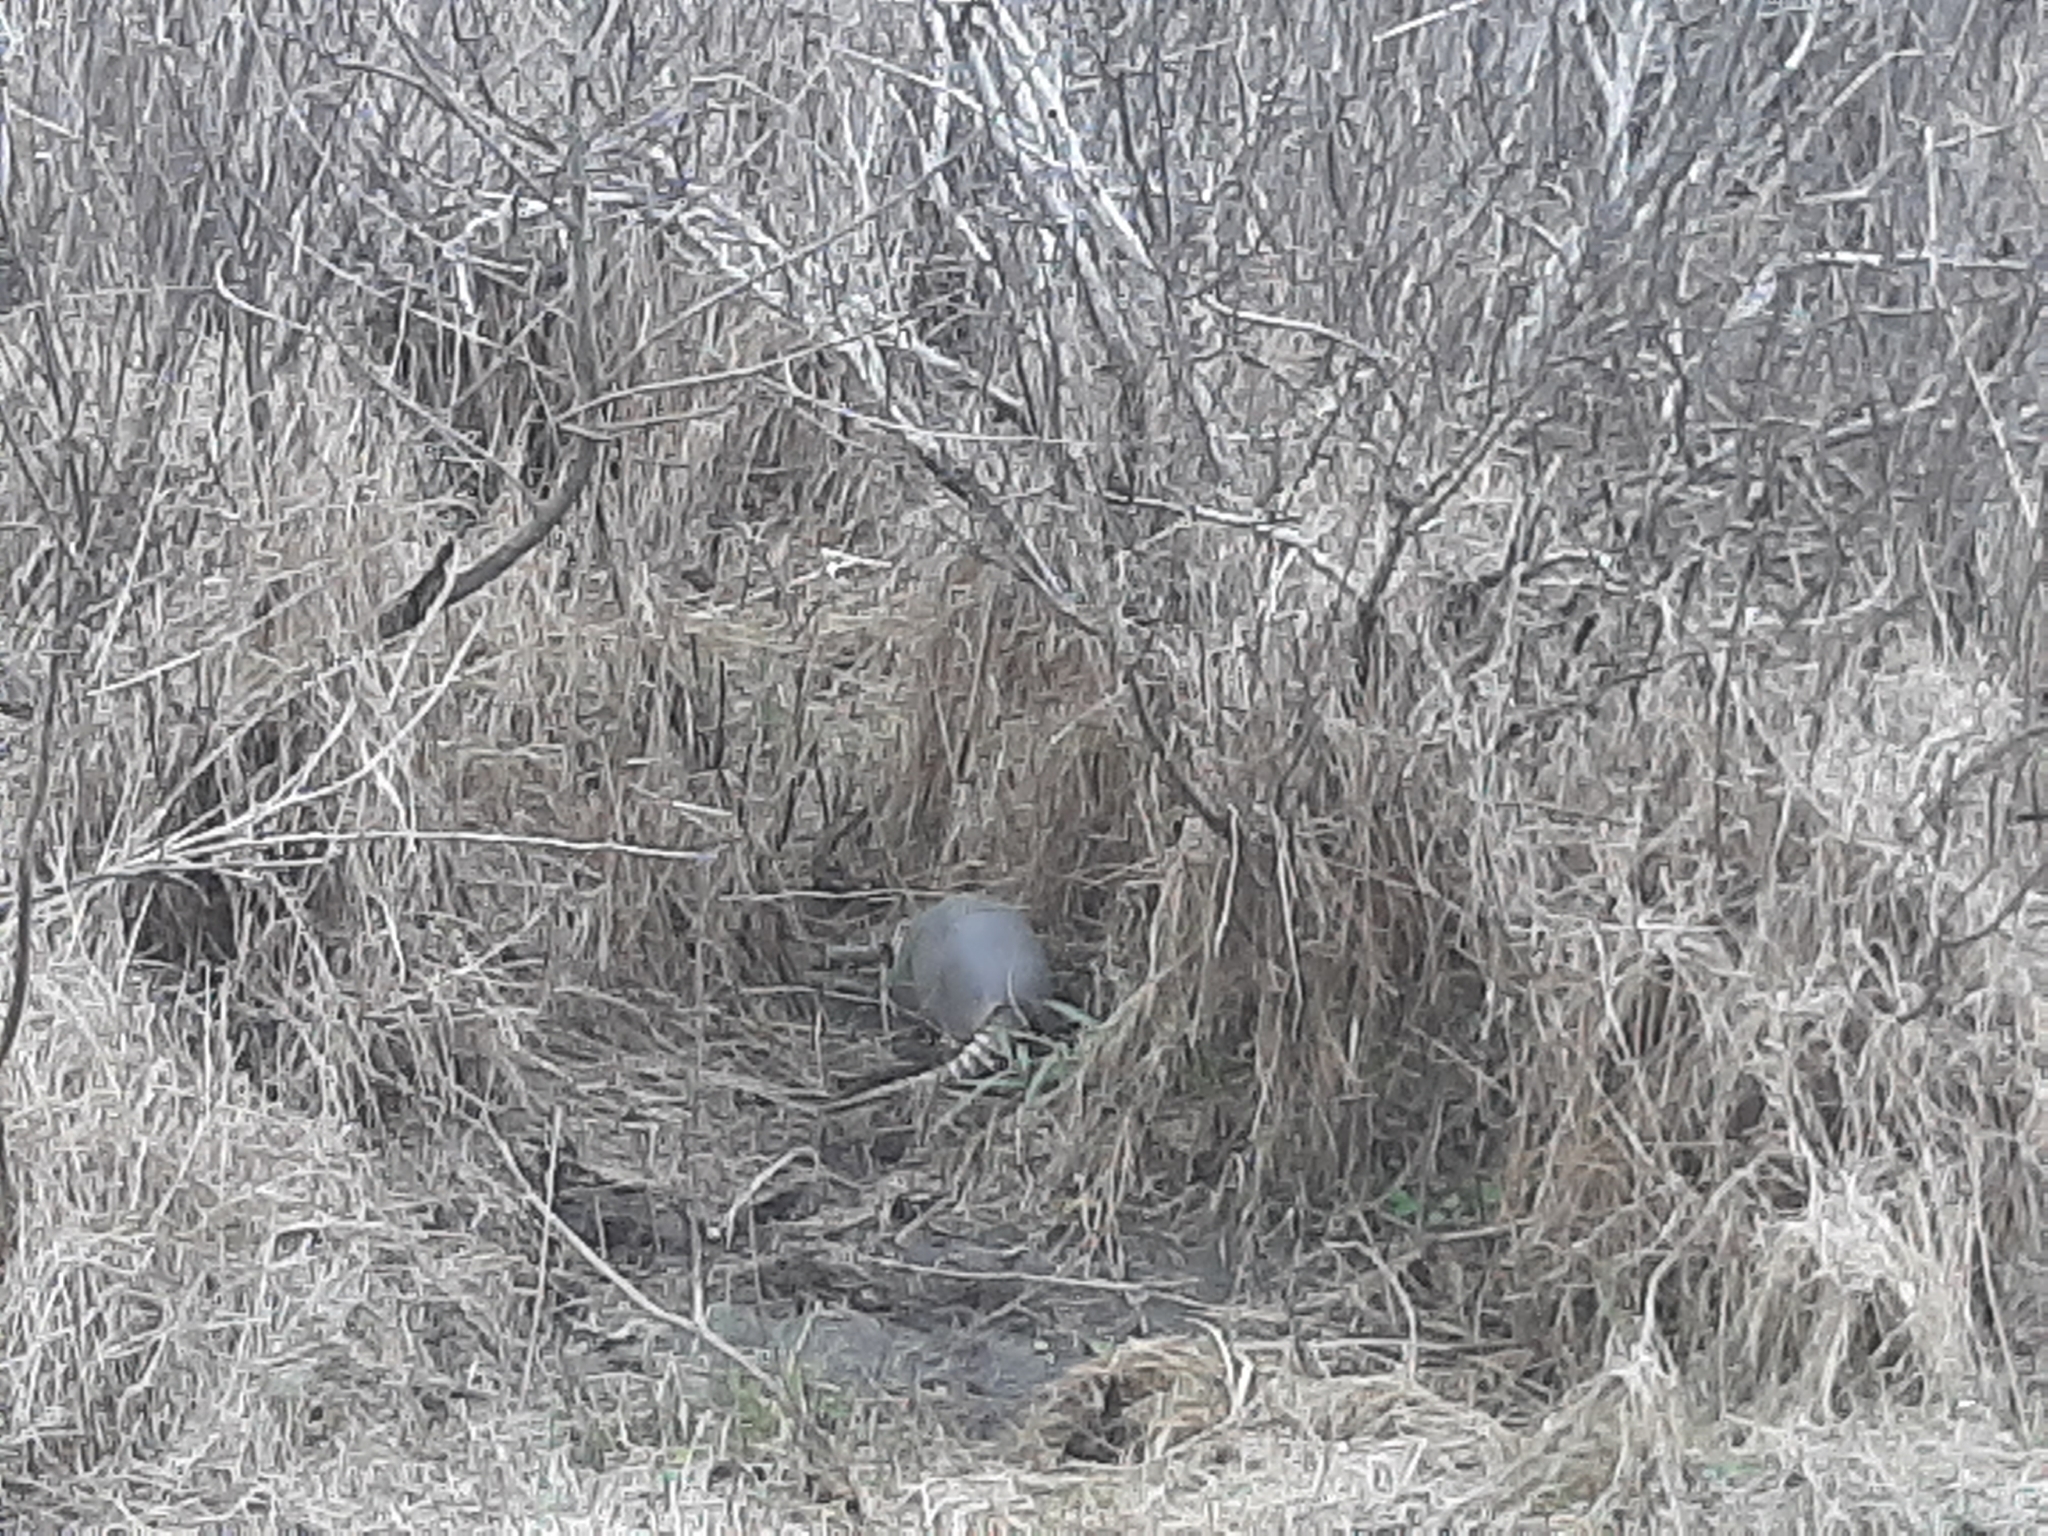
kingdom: Animalia
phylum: Chordata
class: Mammalia
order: Cingulata
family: Dasypodidae
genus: Dasypus
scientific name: Dasypus novemcinctus
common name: Nine-banded armadillo
